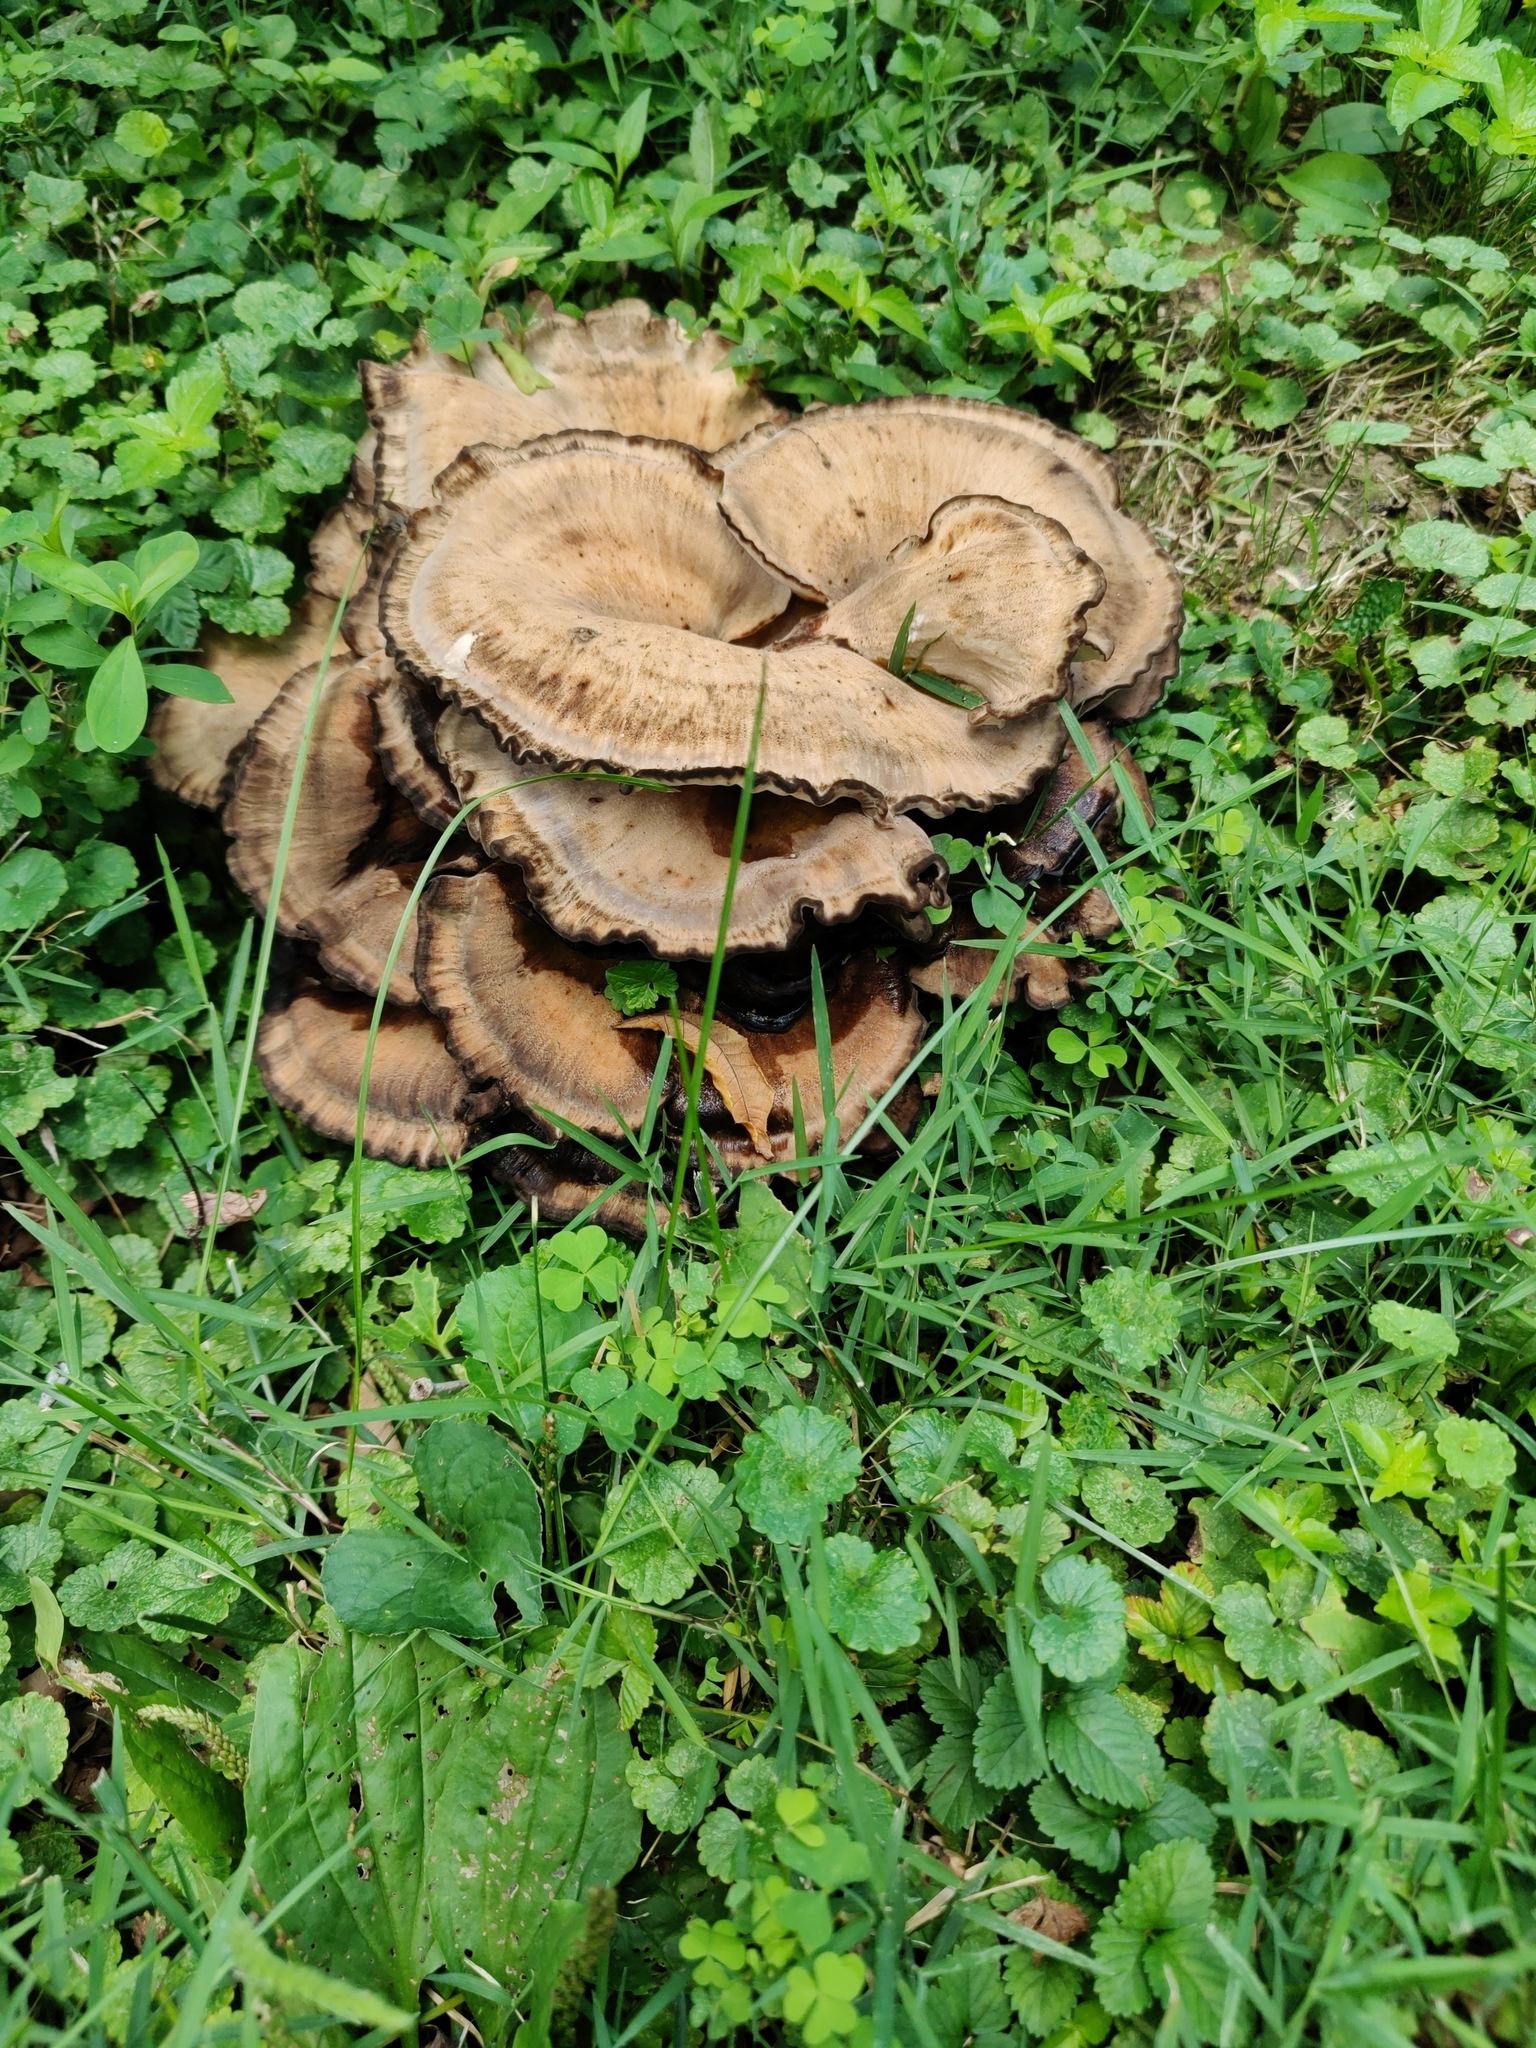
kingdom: Fungi
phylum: Basidiomycota
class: Agaricomycetes
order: Polyporales
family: Meripilaceae
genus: Meripilus
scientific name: Meripilus sumstinei
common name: Black-staining polypore
